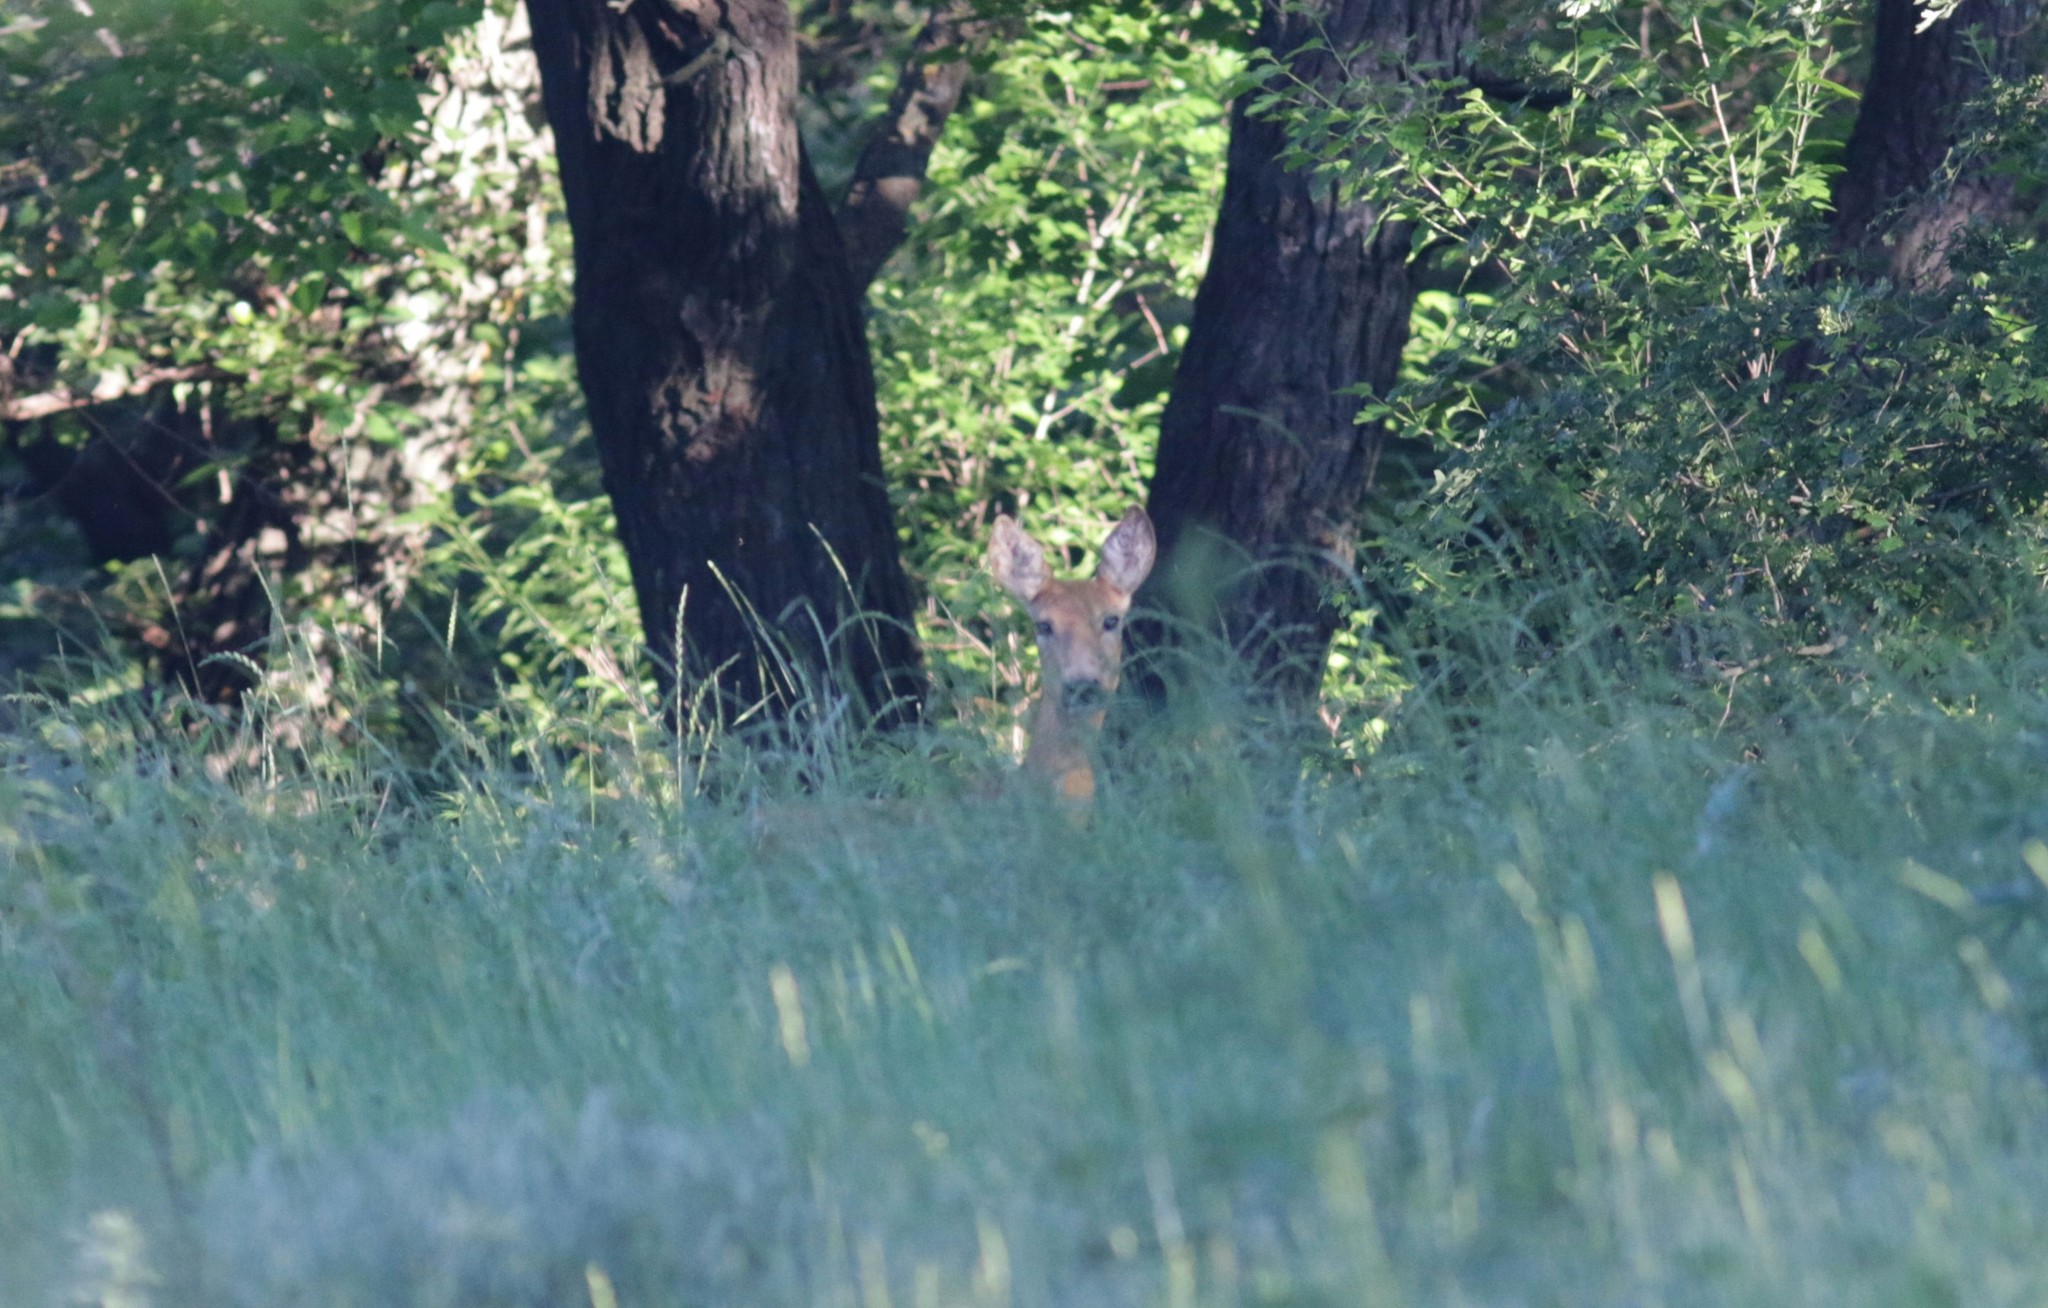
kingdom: Animalia
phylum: Chordata
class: Mammalia
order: Artiodactyla
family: Cervidae
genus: Capreolus
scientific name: Capreolus pygargus
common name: Siberian roe
